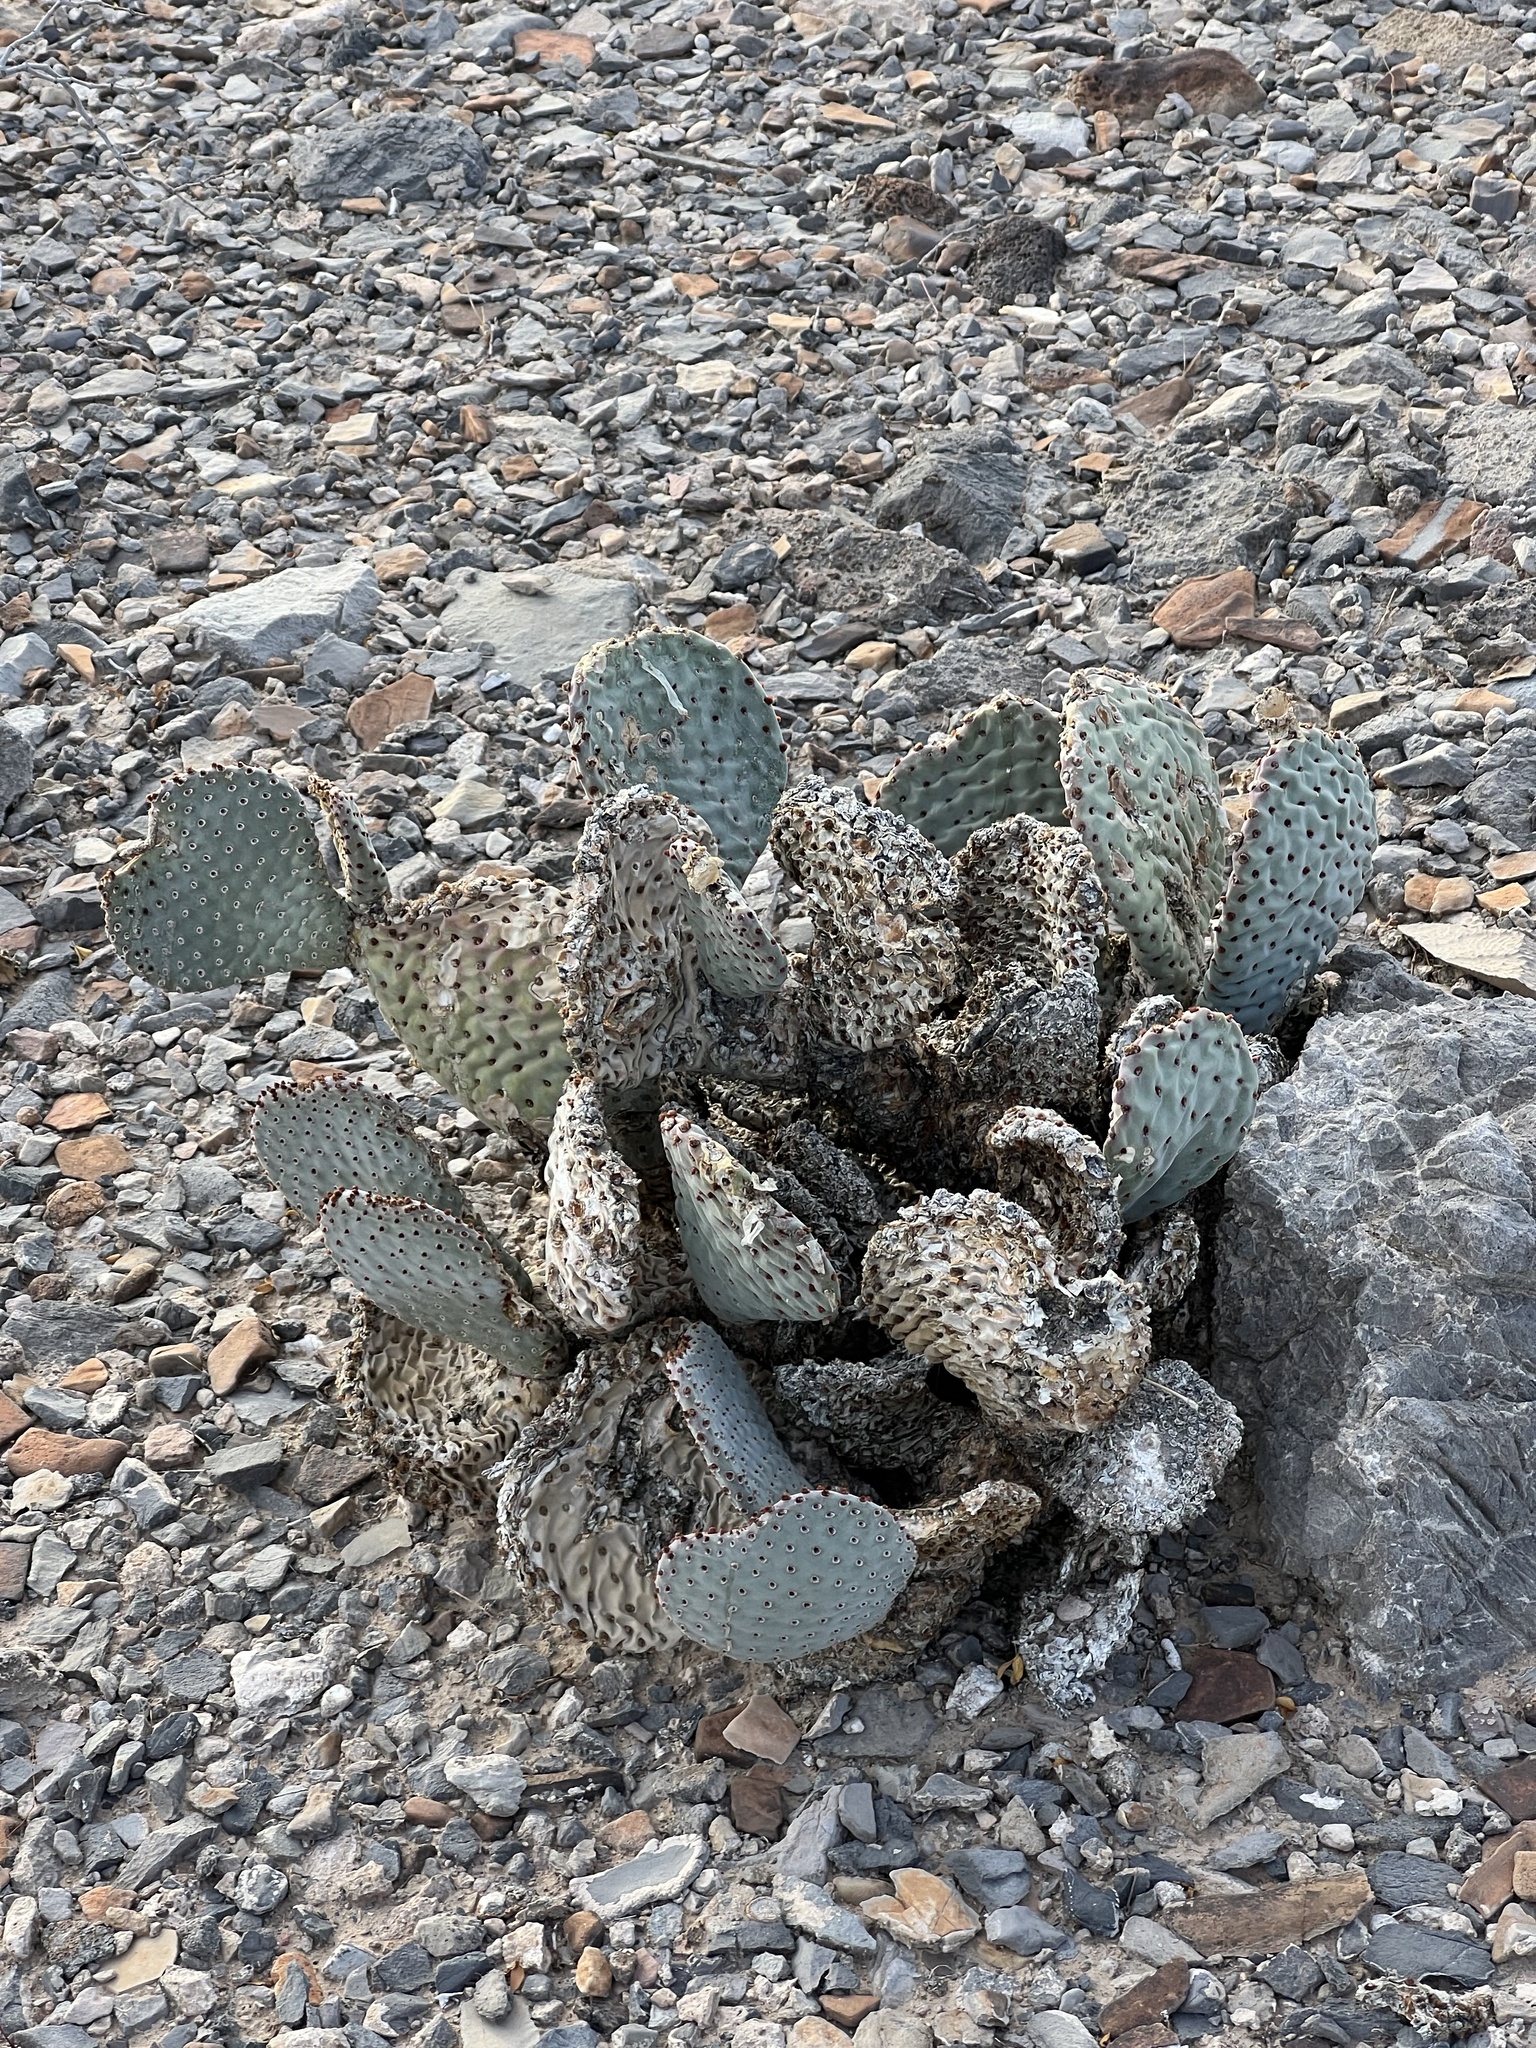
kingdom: Plantae
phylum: Tracheophyta
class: Magnoliopsida
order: Caryophyllales
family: Cactaceae
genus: Opuntia
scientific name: Opuntia basilaris
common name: Beavertail prickly-pear
